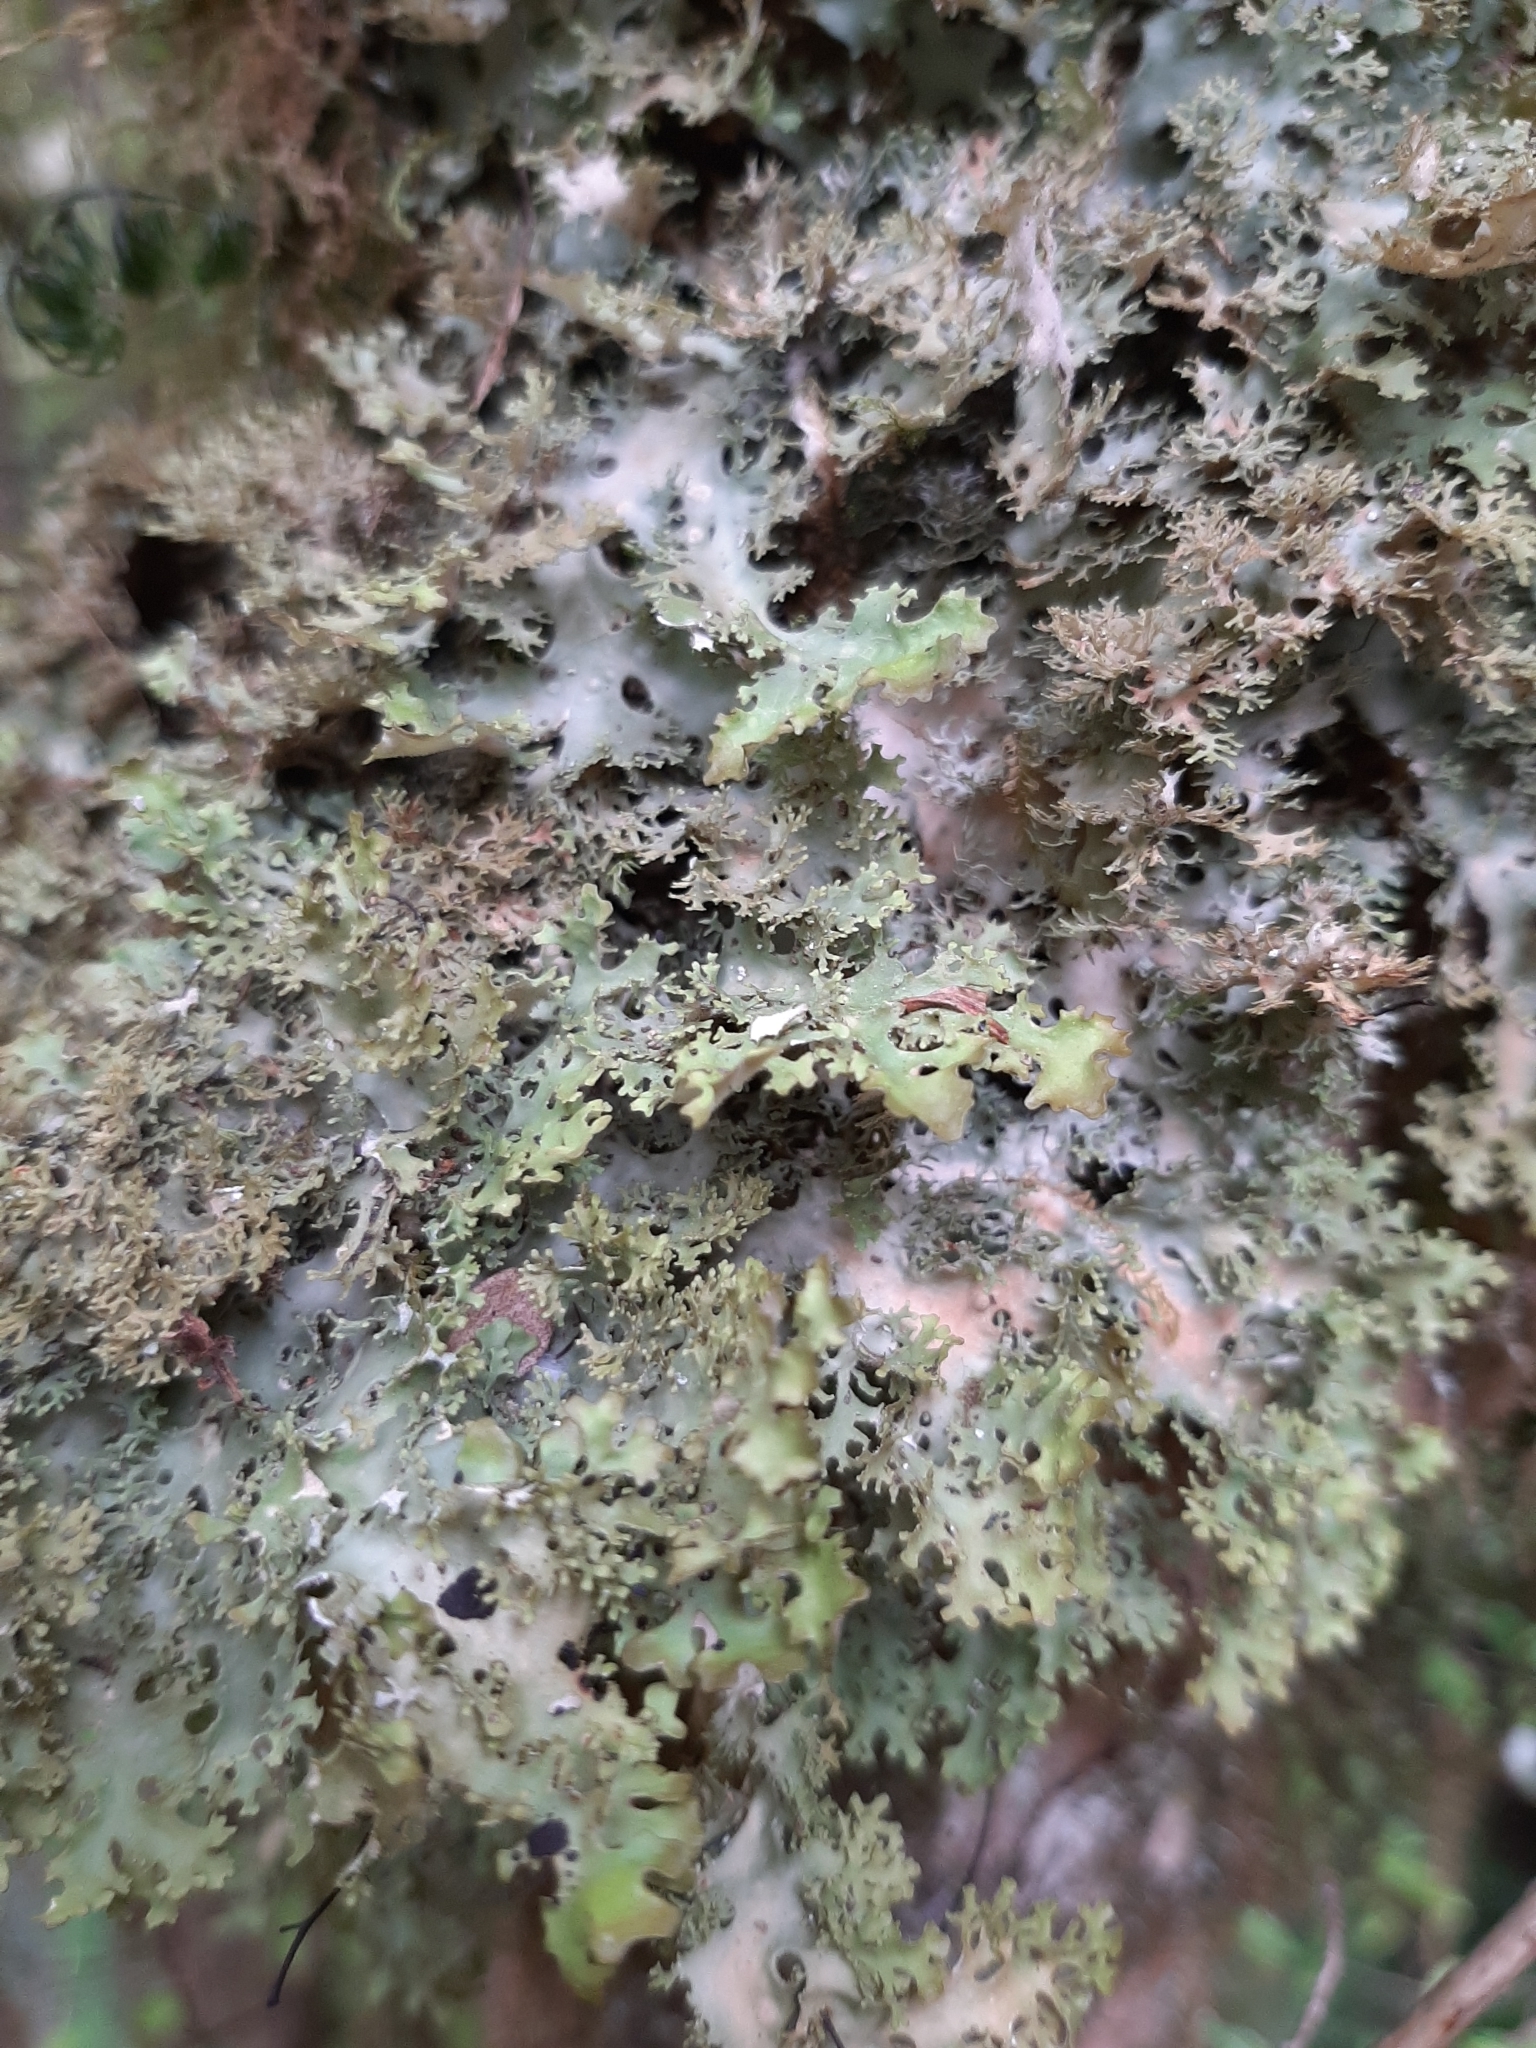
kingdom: Fungi
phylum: Ascomycota
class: Lecanoromycetes
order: Peltigerales
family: Lobariaceae
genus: Pseudocyphellaria
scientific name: Pseudocyphellaria multifida
